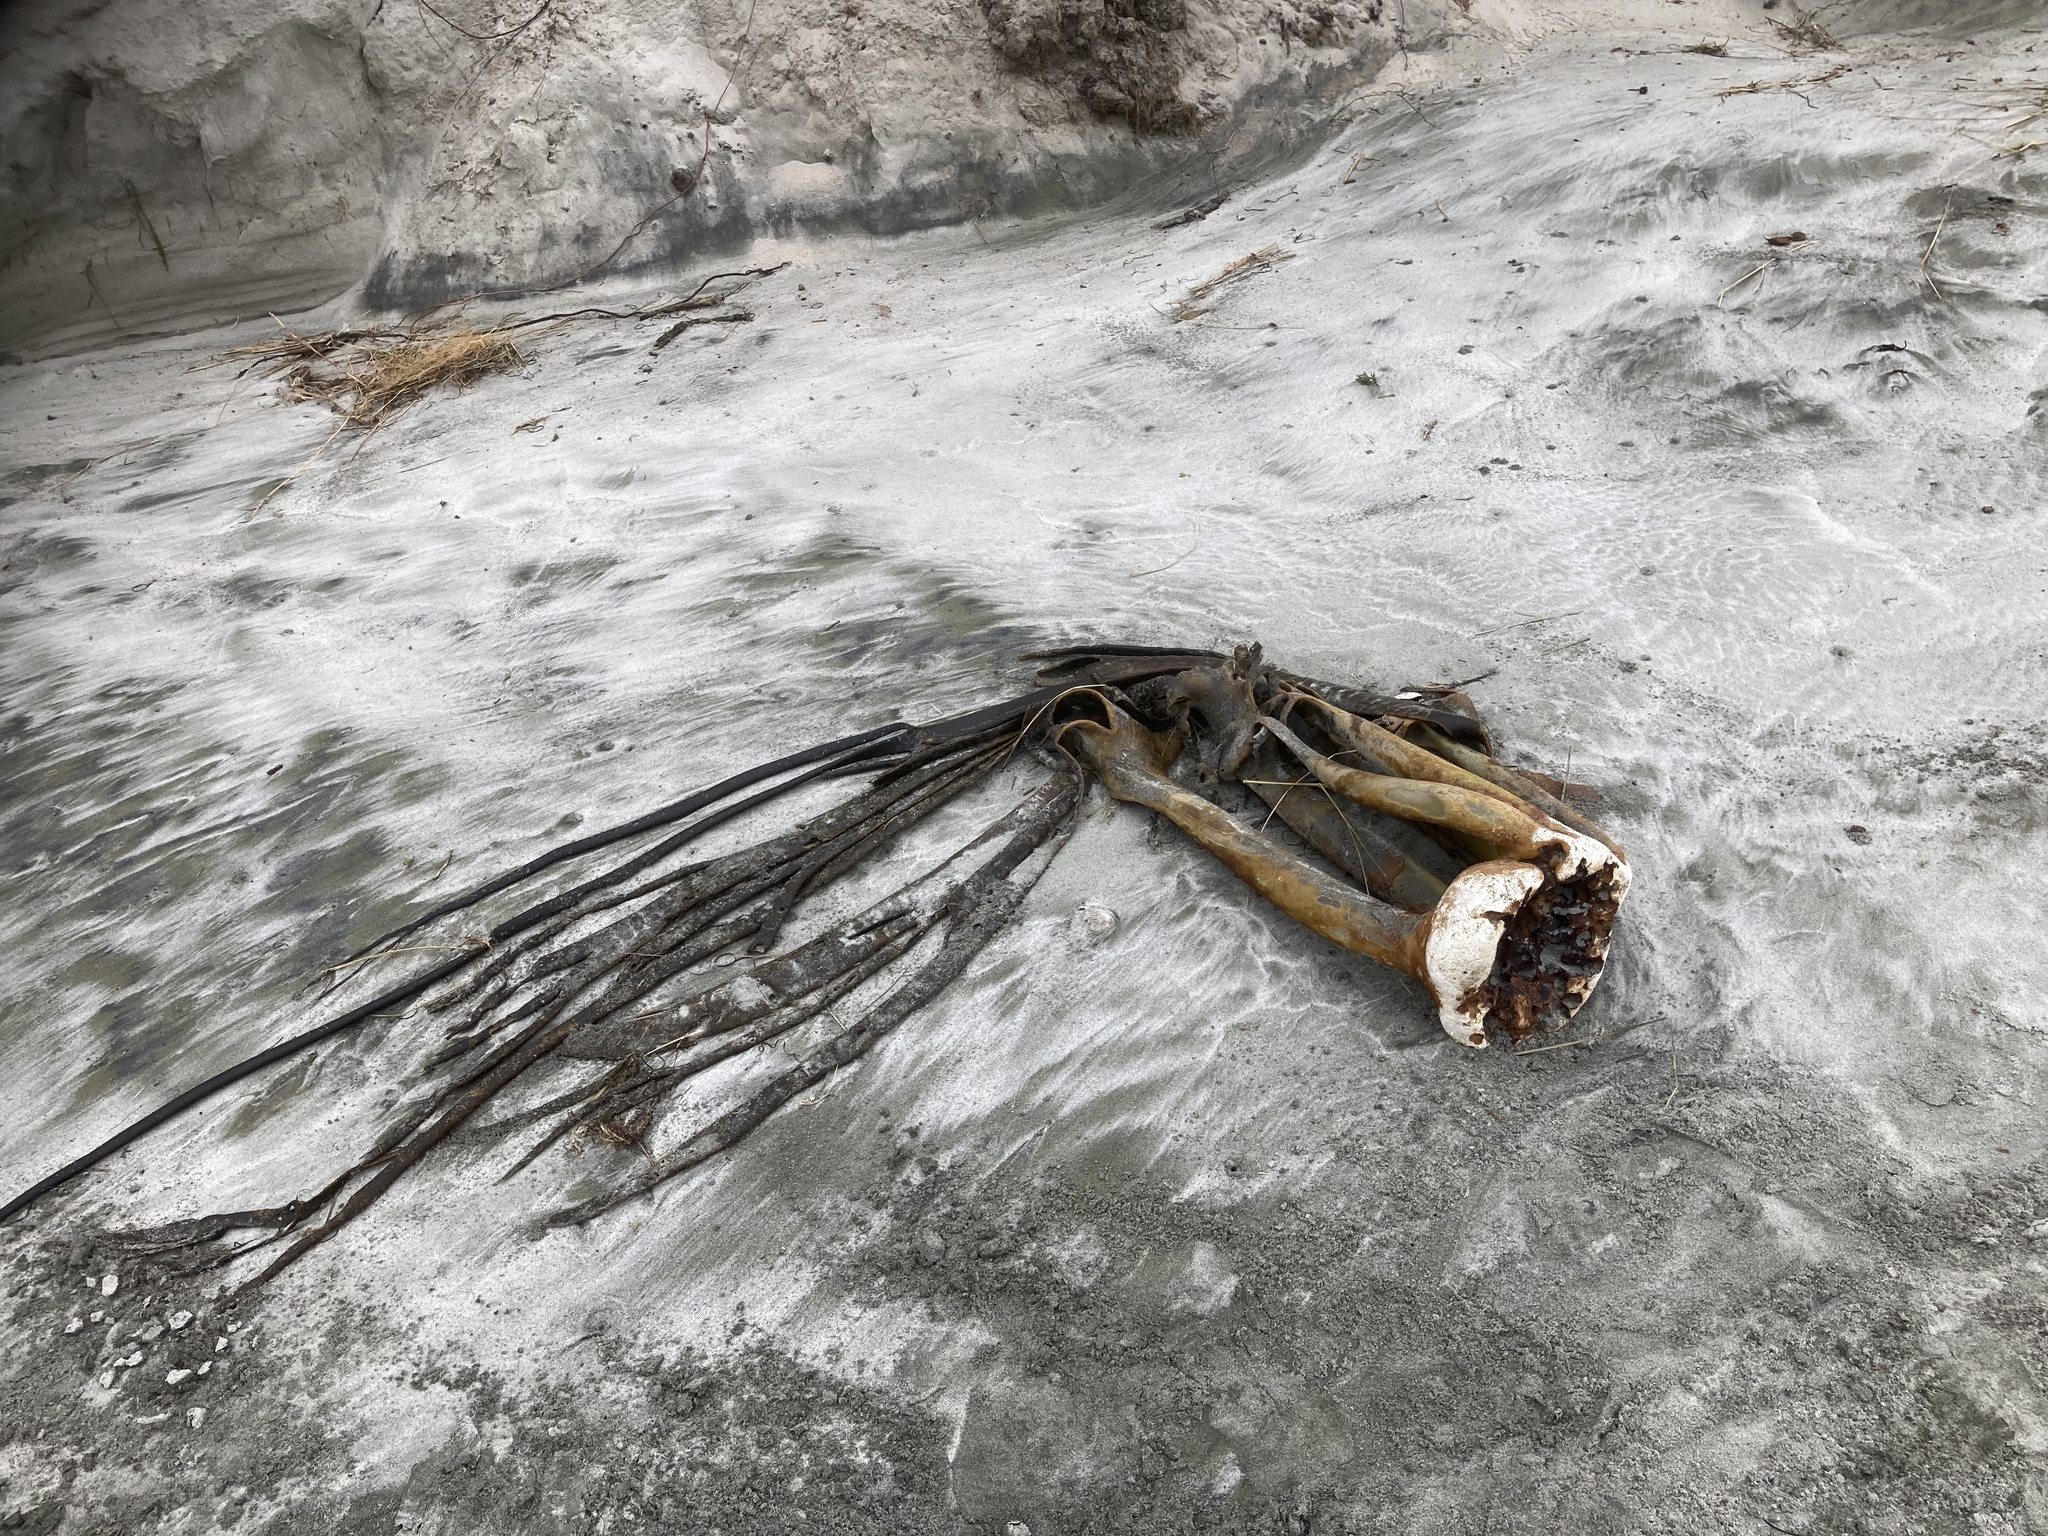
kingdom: Chromista
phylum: Ochrophyta
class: Phaeophyceae
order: Fucales
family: Durvillaeaceae
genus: Durvillaea
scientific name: Durvillaea antarctica
